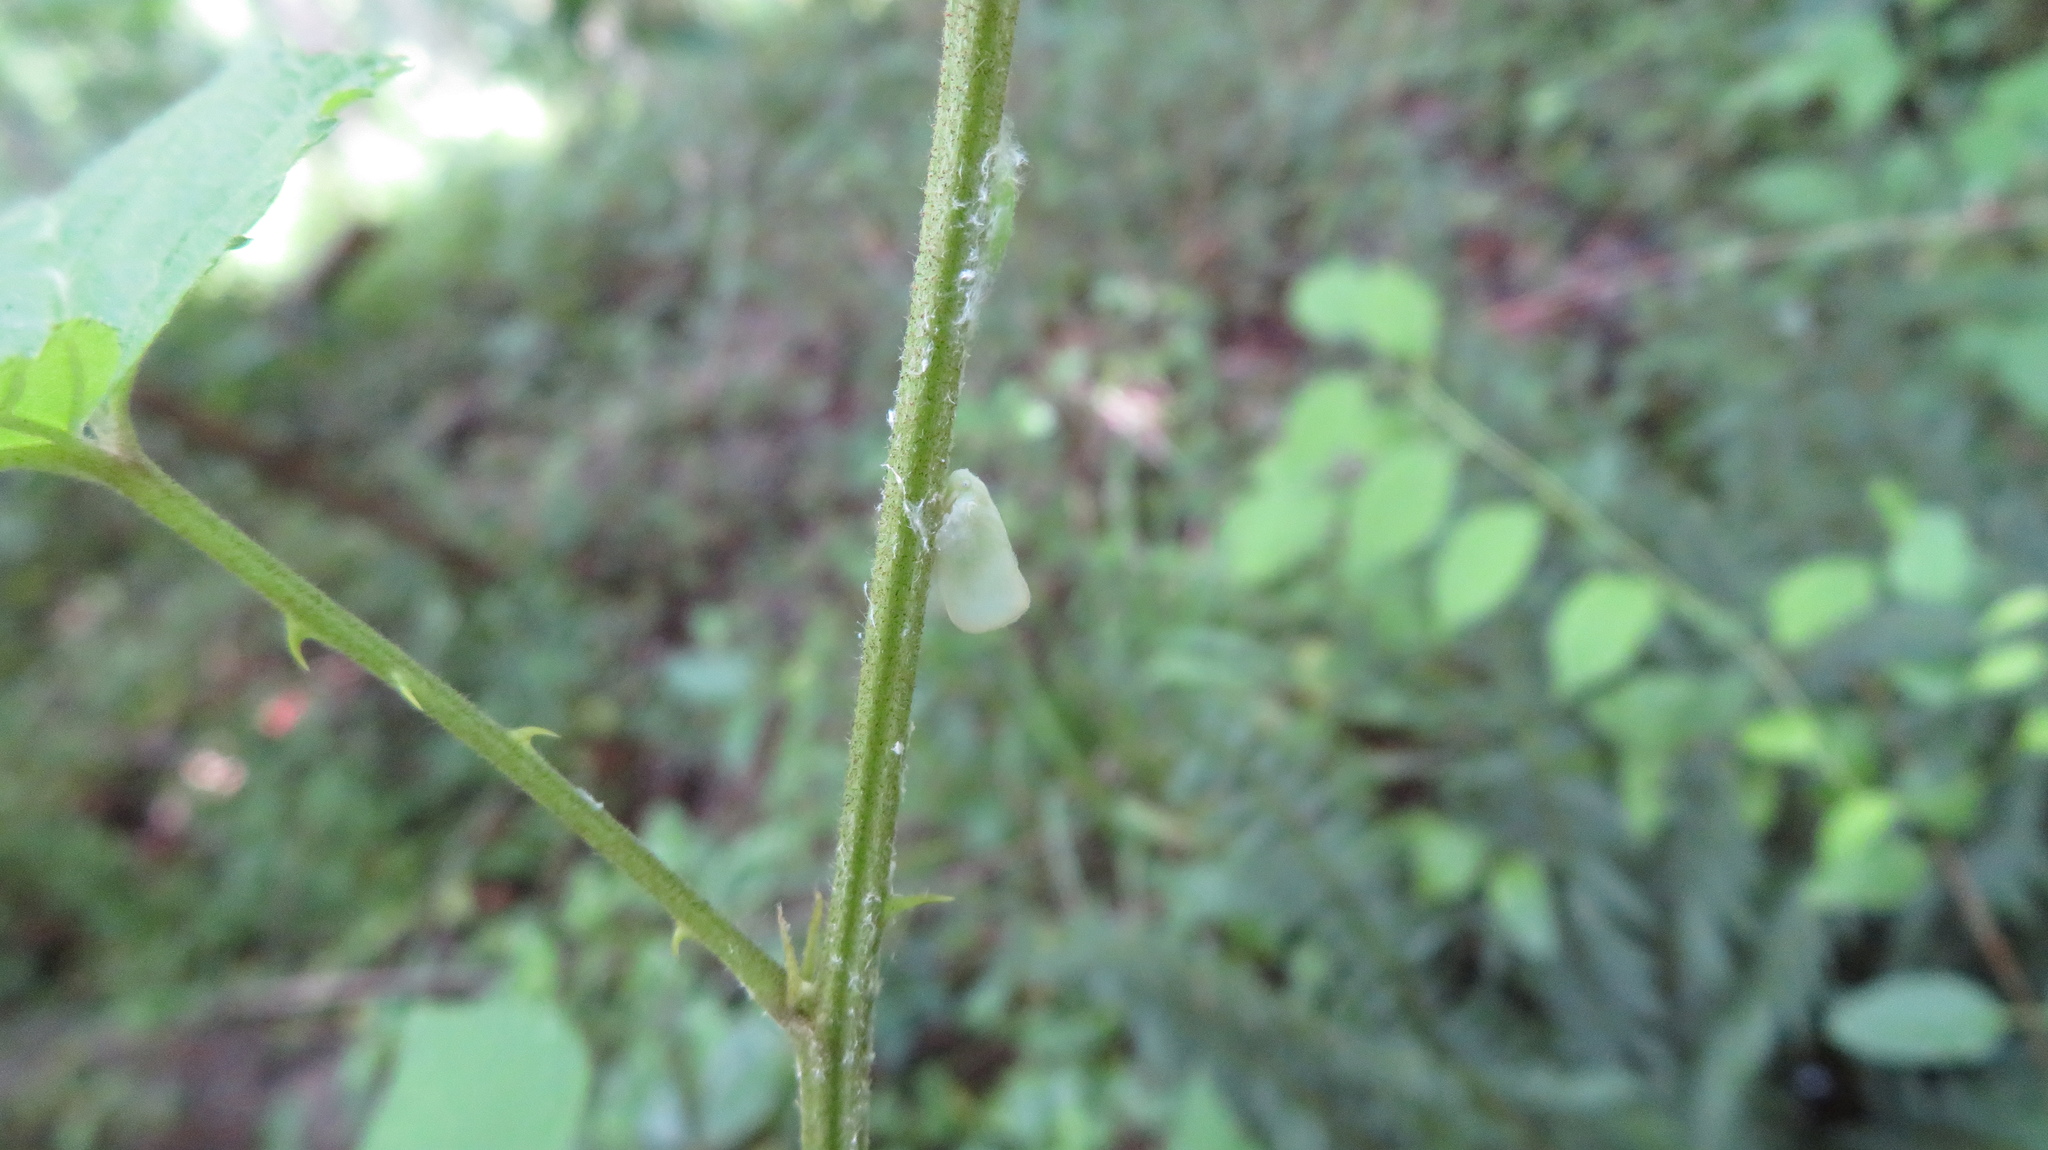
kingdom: Animalia
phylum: Arthropoda
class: Insecta
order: Hemiptera
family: Flatidae
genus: Ormenoides
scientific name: Ormenoides venusta
